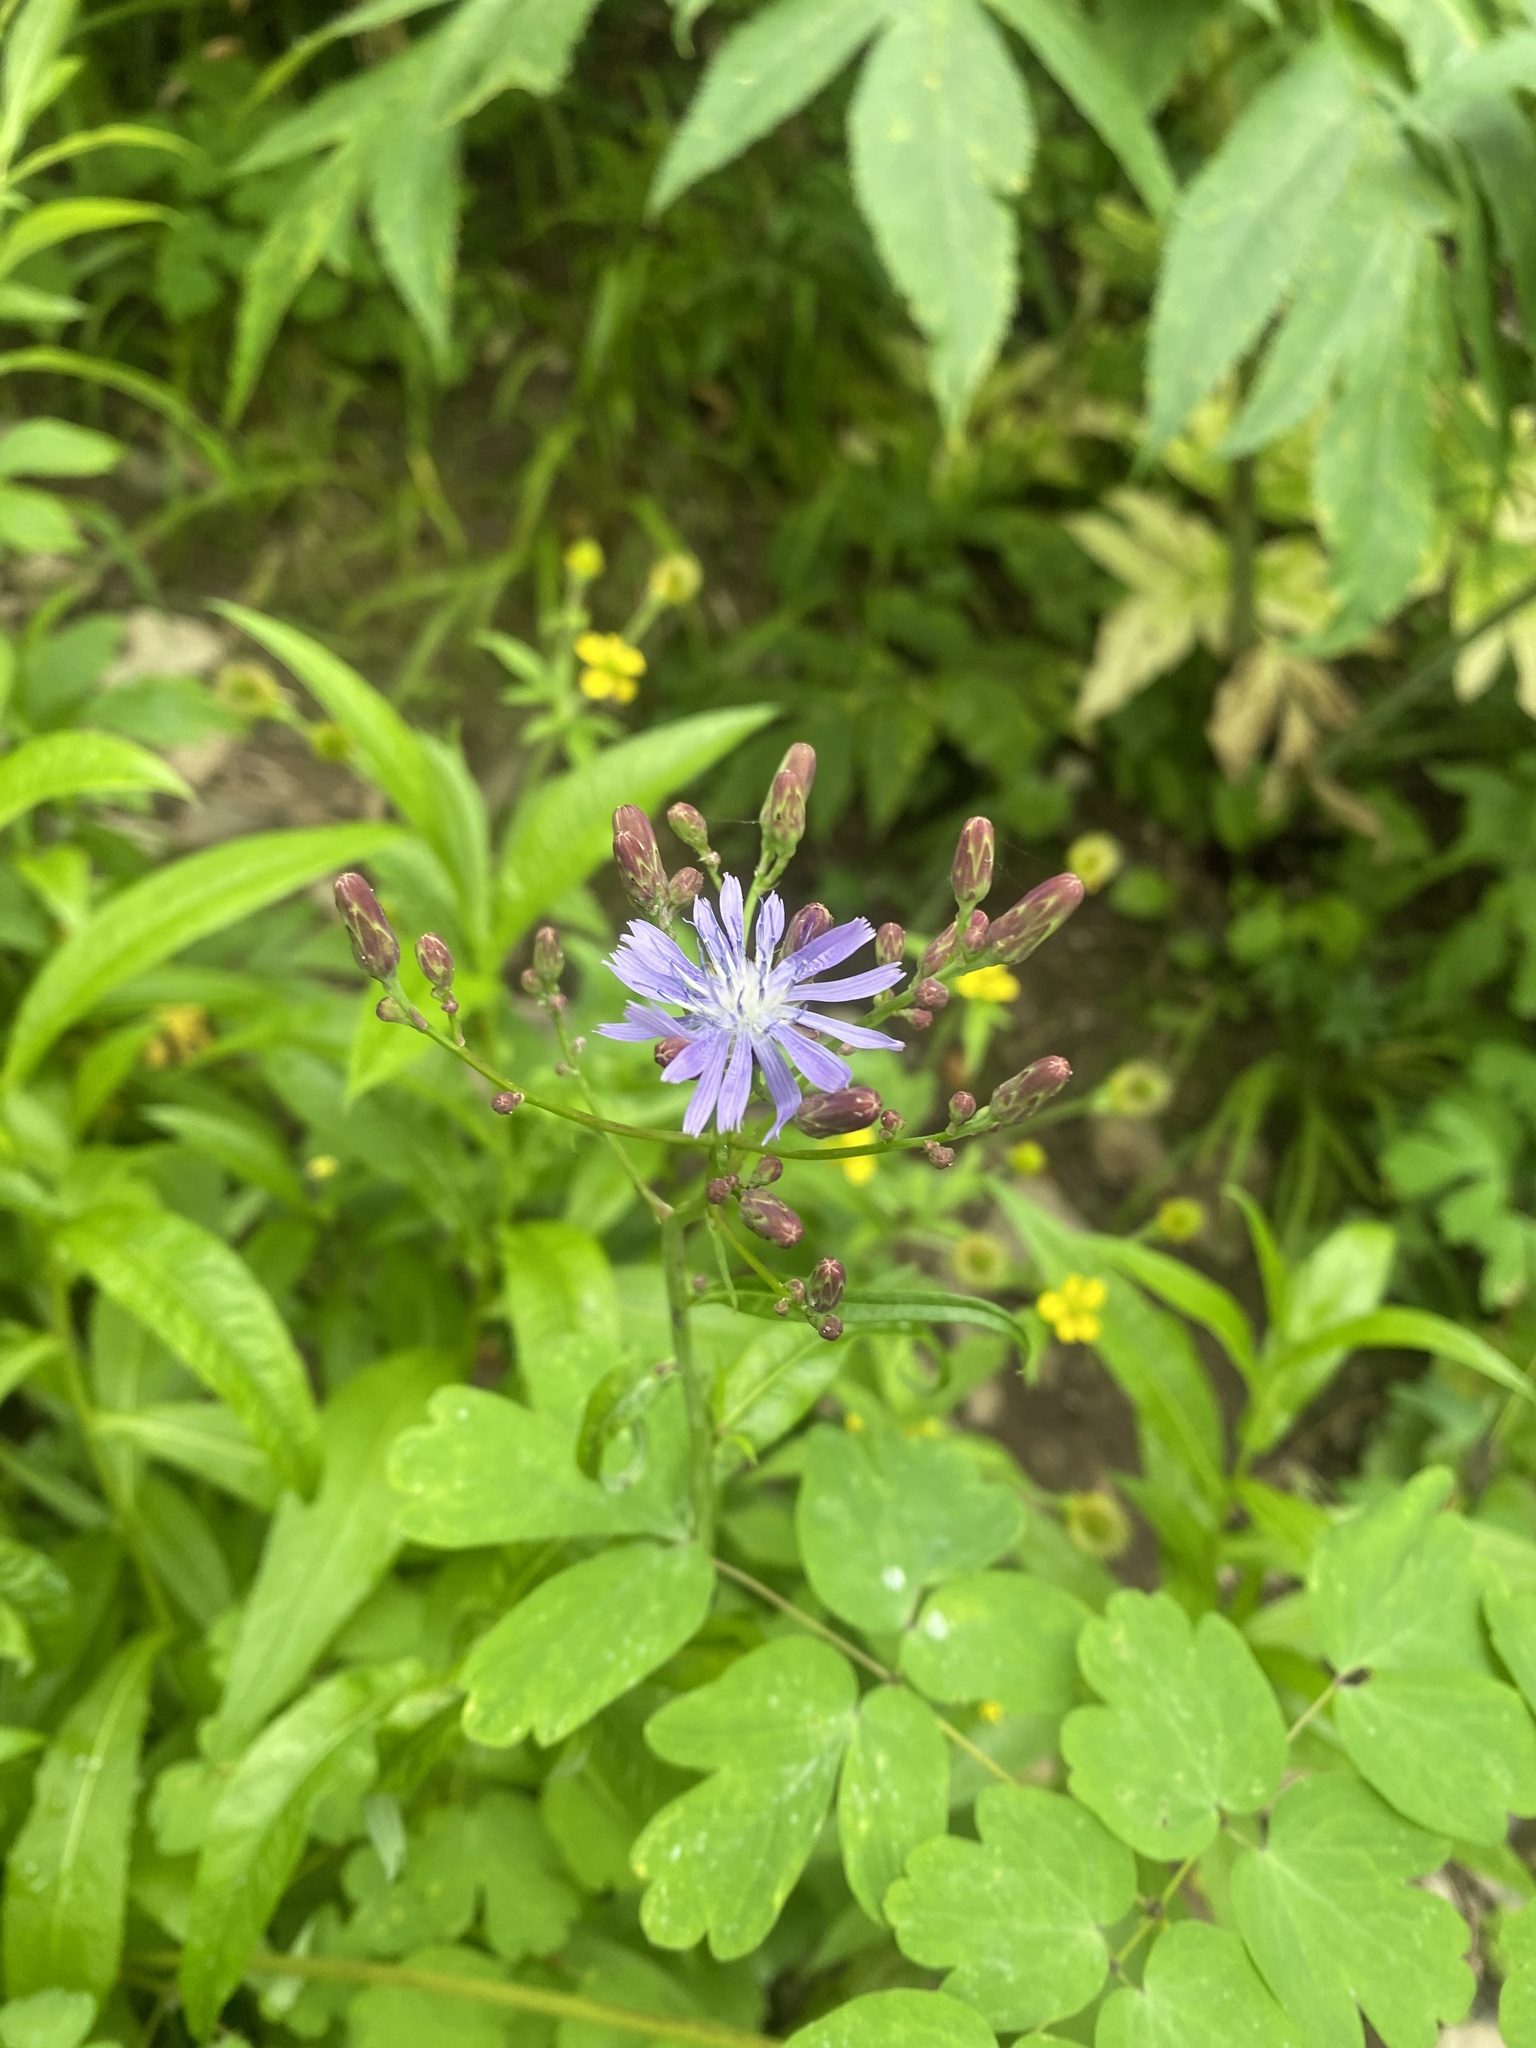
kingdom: Plantae
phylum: Tracheophyta
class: Magnoliopsida
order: Asterales
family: Asteraceae
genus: Lactuca
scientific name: Lactuca sibirica
